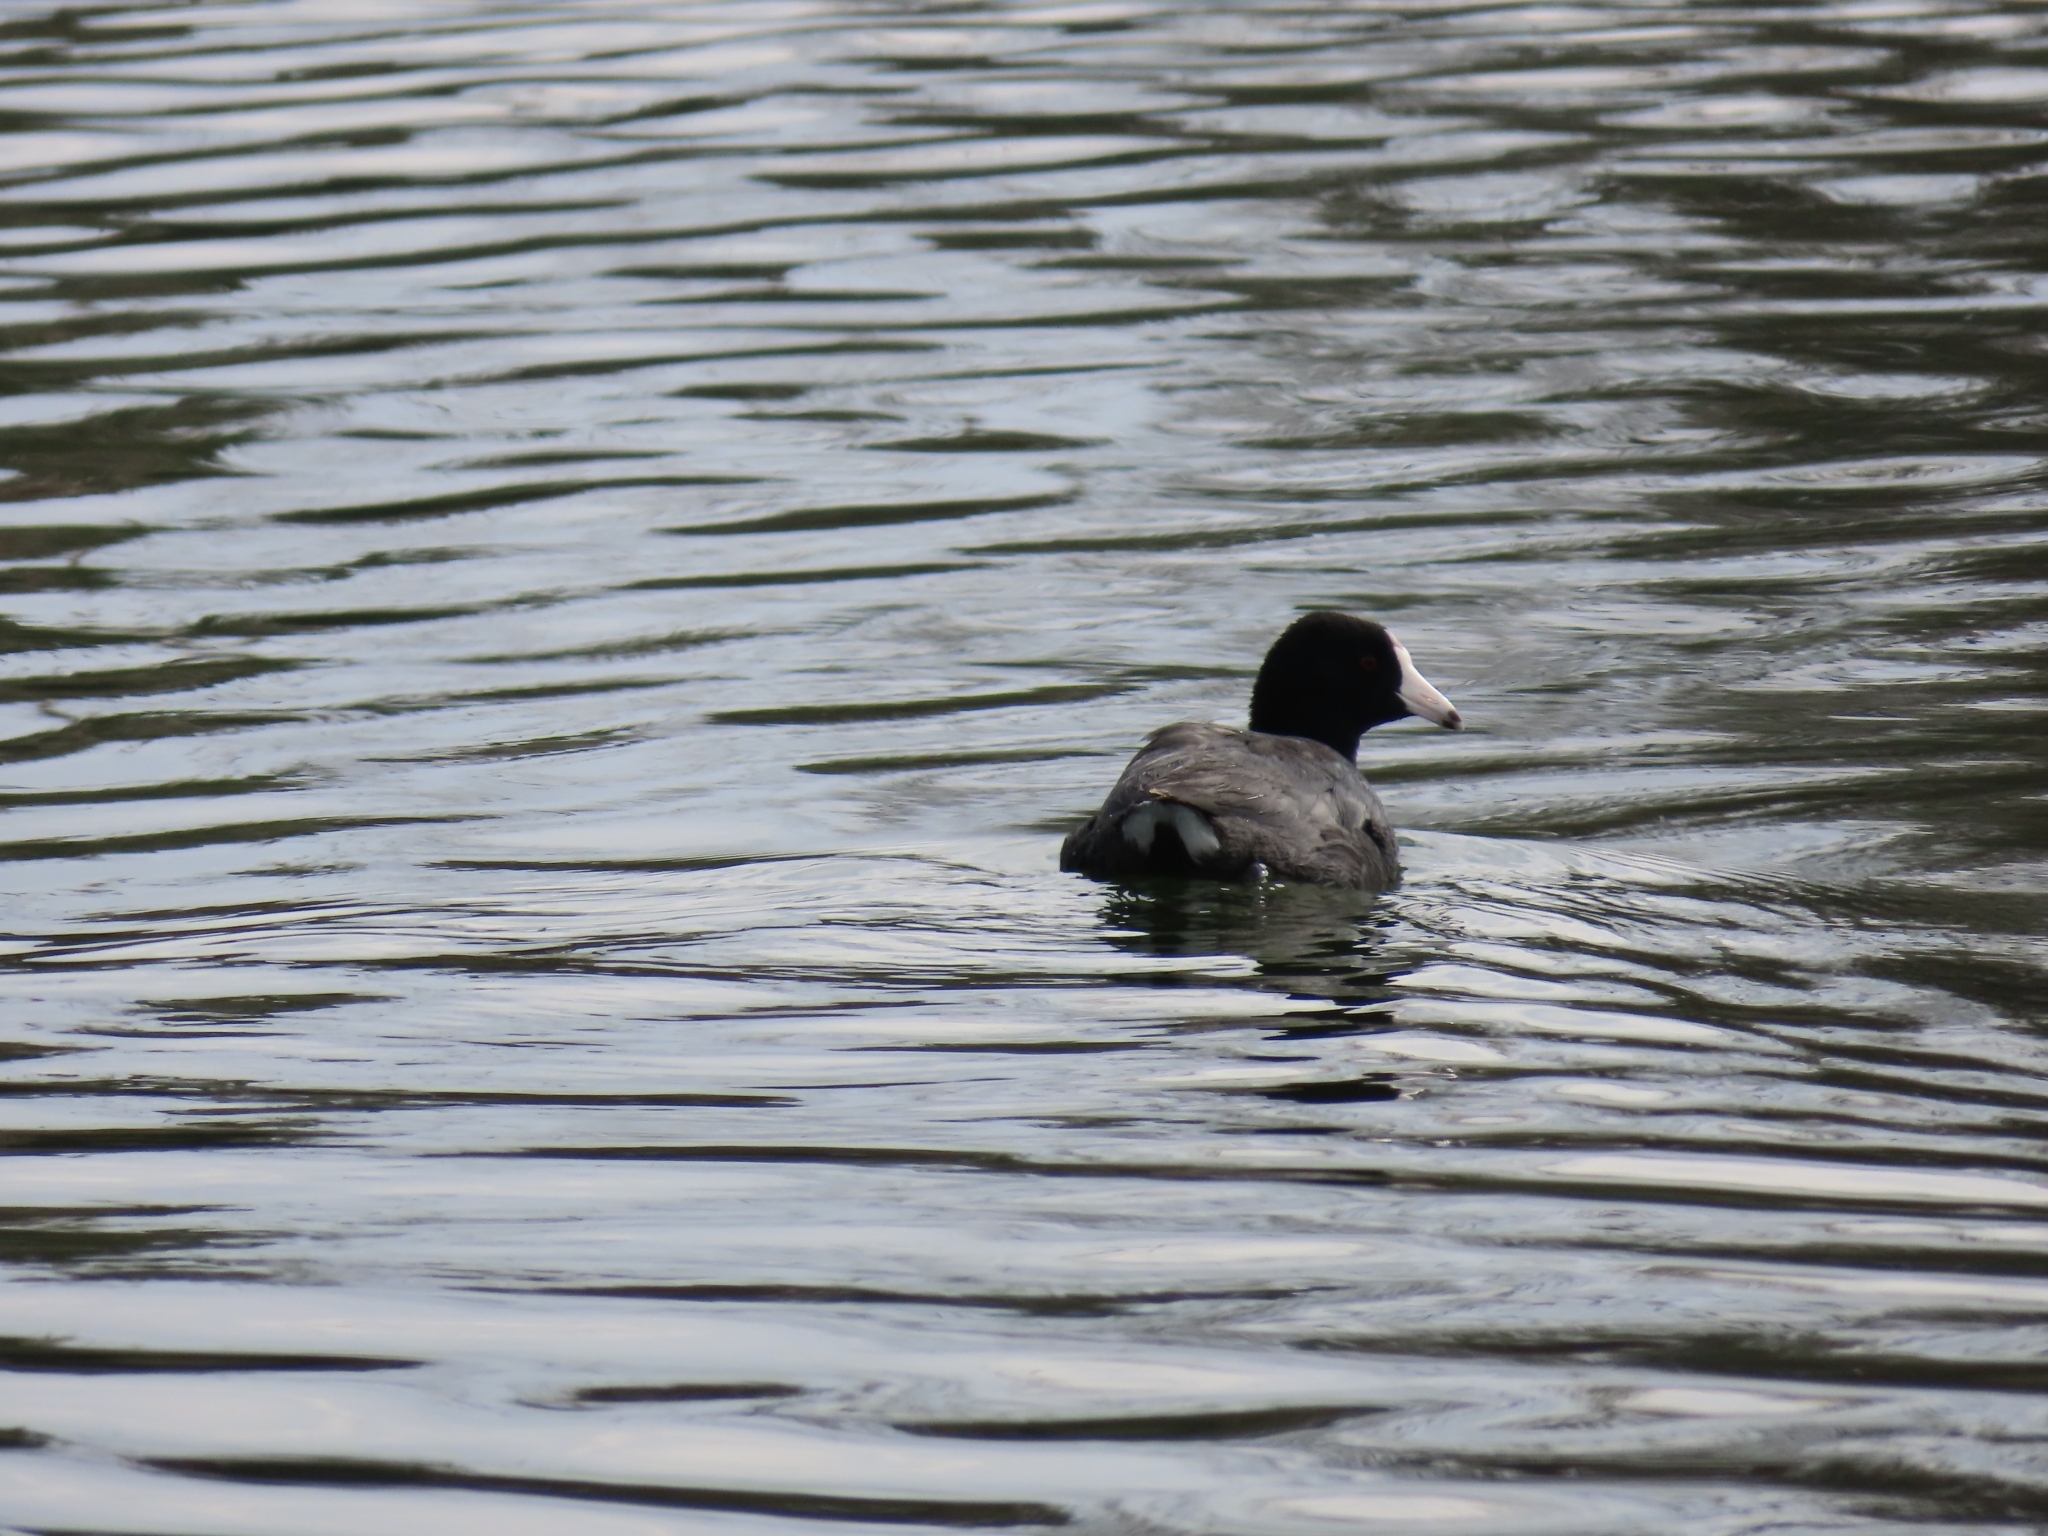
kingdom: Animalia
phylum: Chordata
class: Aves
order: Gruiformes
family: Rallidae
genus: Fulica
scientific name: Fulica americana
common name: American coot
